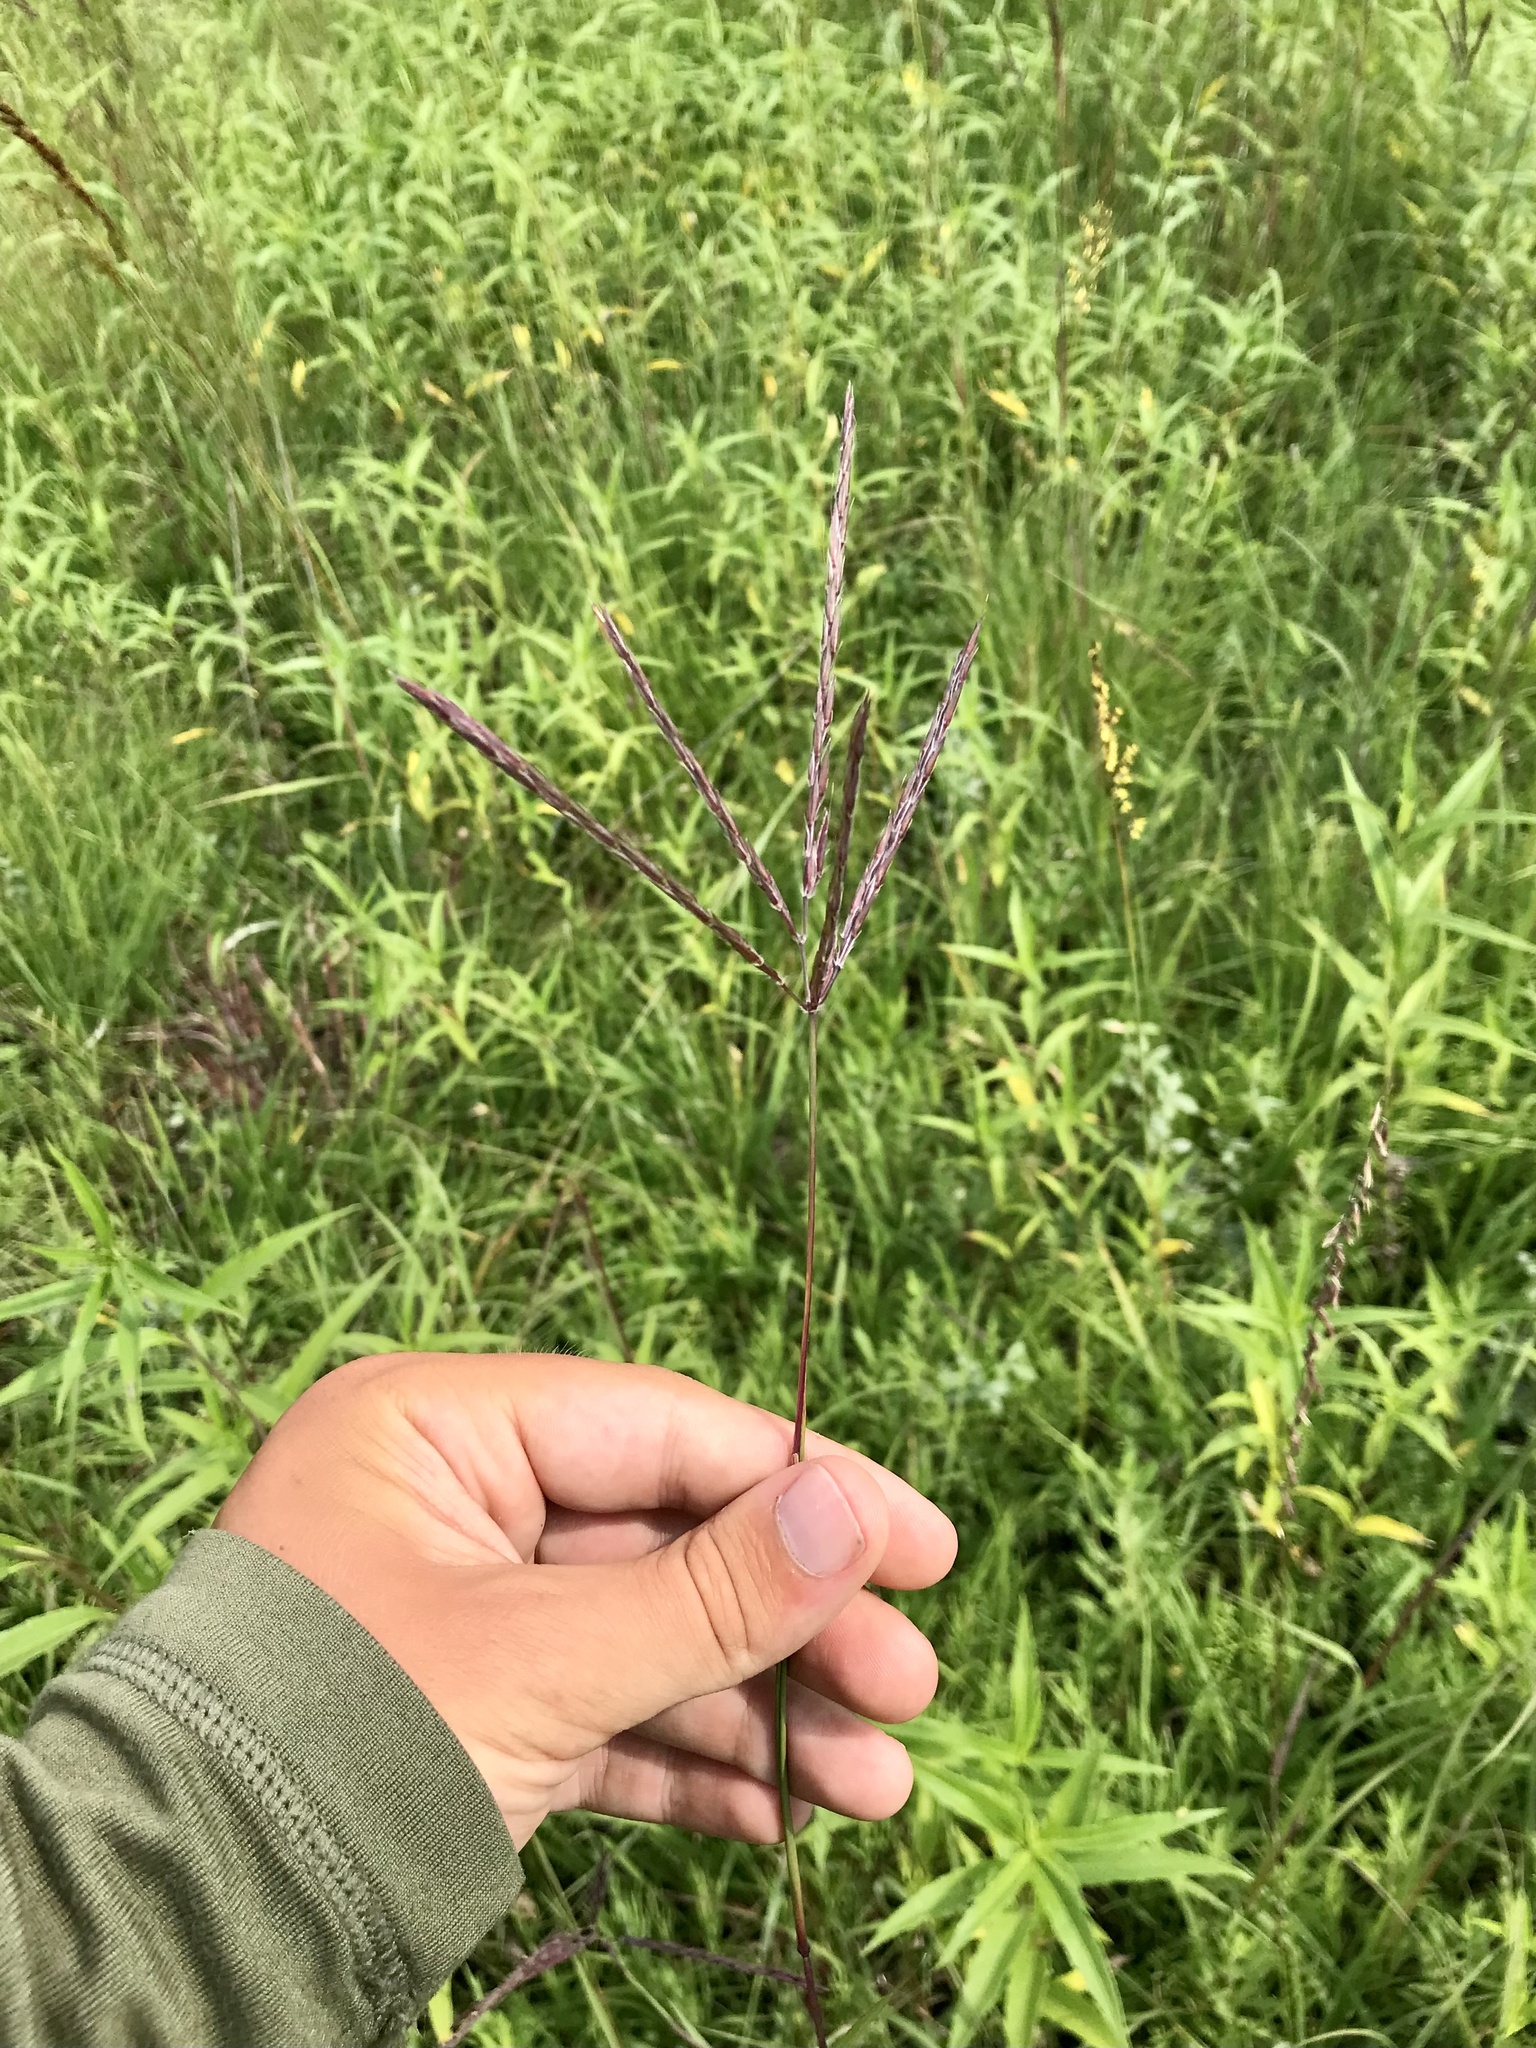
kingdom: Plantae
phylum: Tracheophyta
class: Liliopsida
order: Poales
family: Poaceae
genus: Andropogon
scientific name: Andropogon gerardi
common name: Big bluestem
